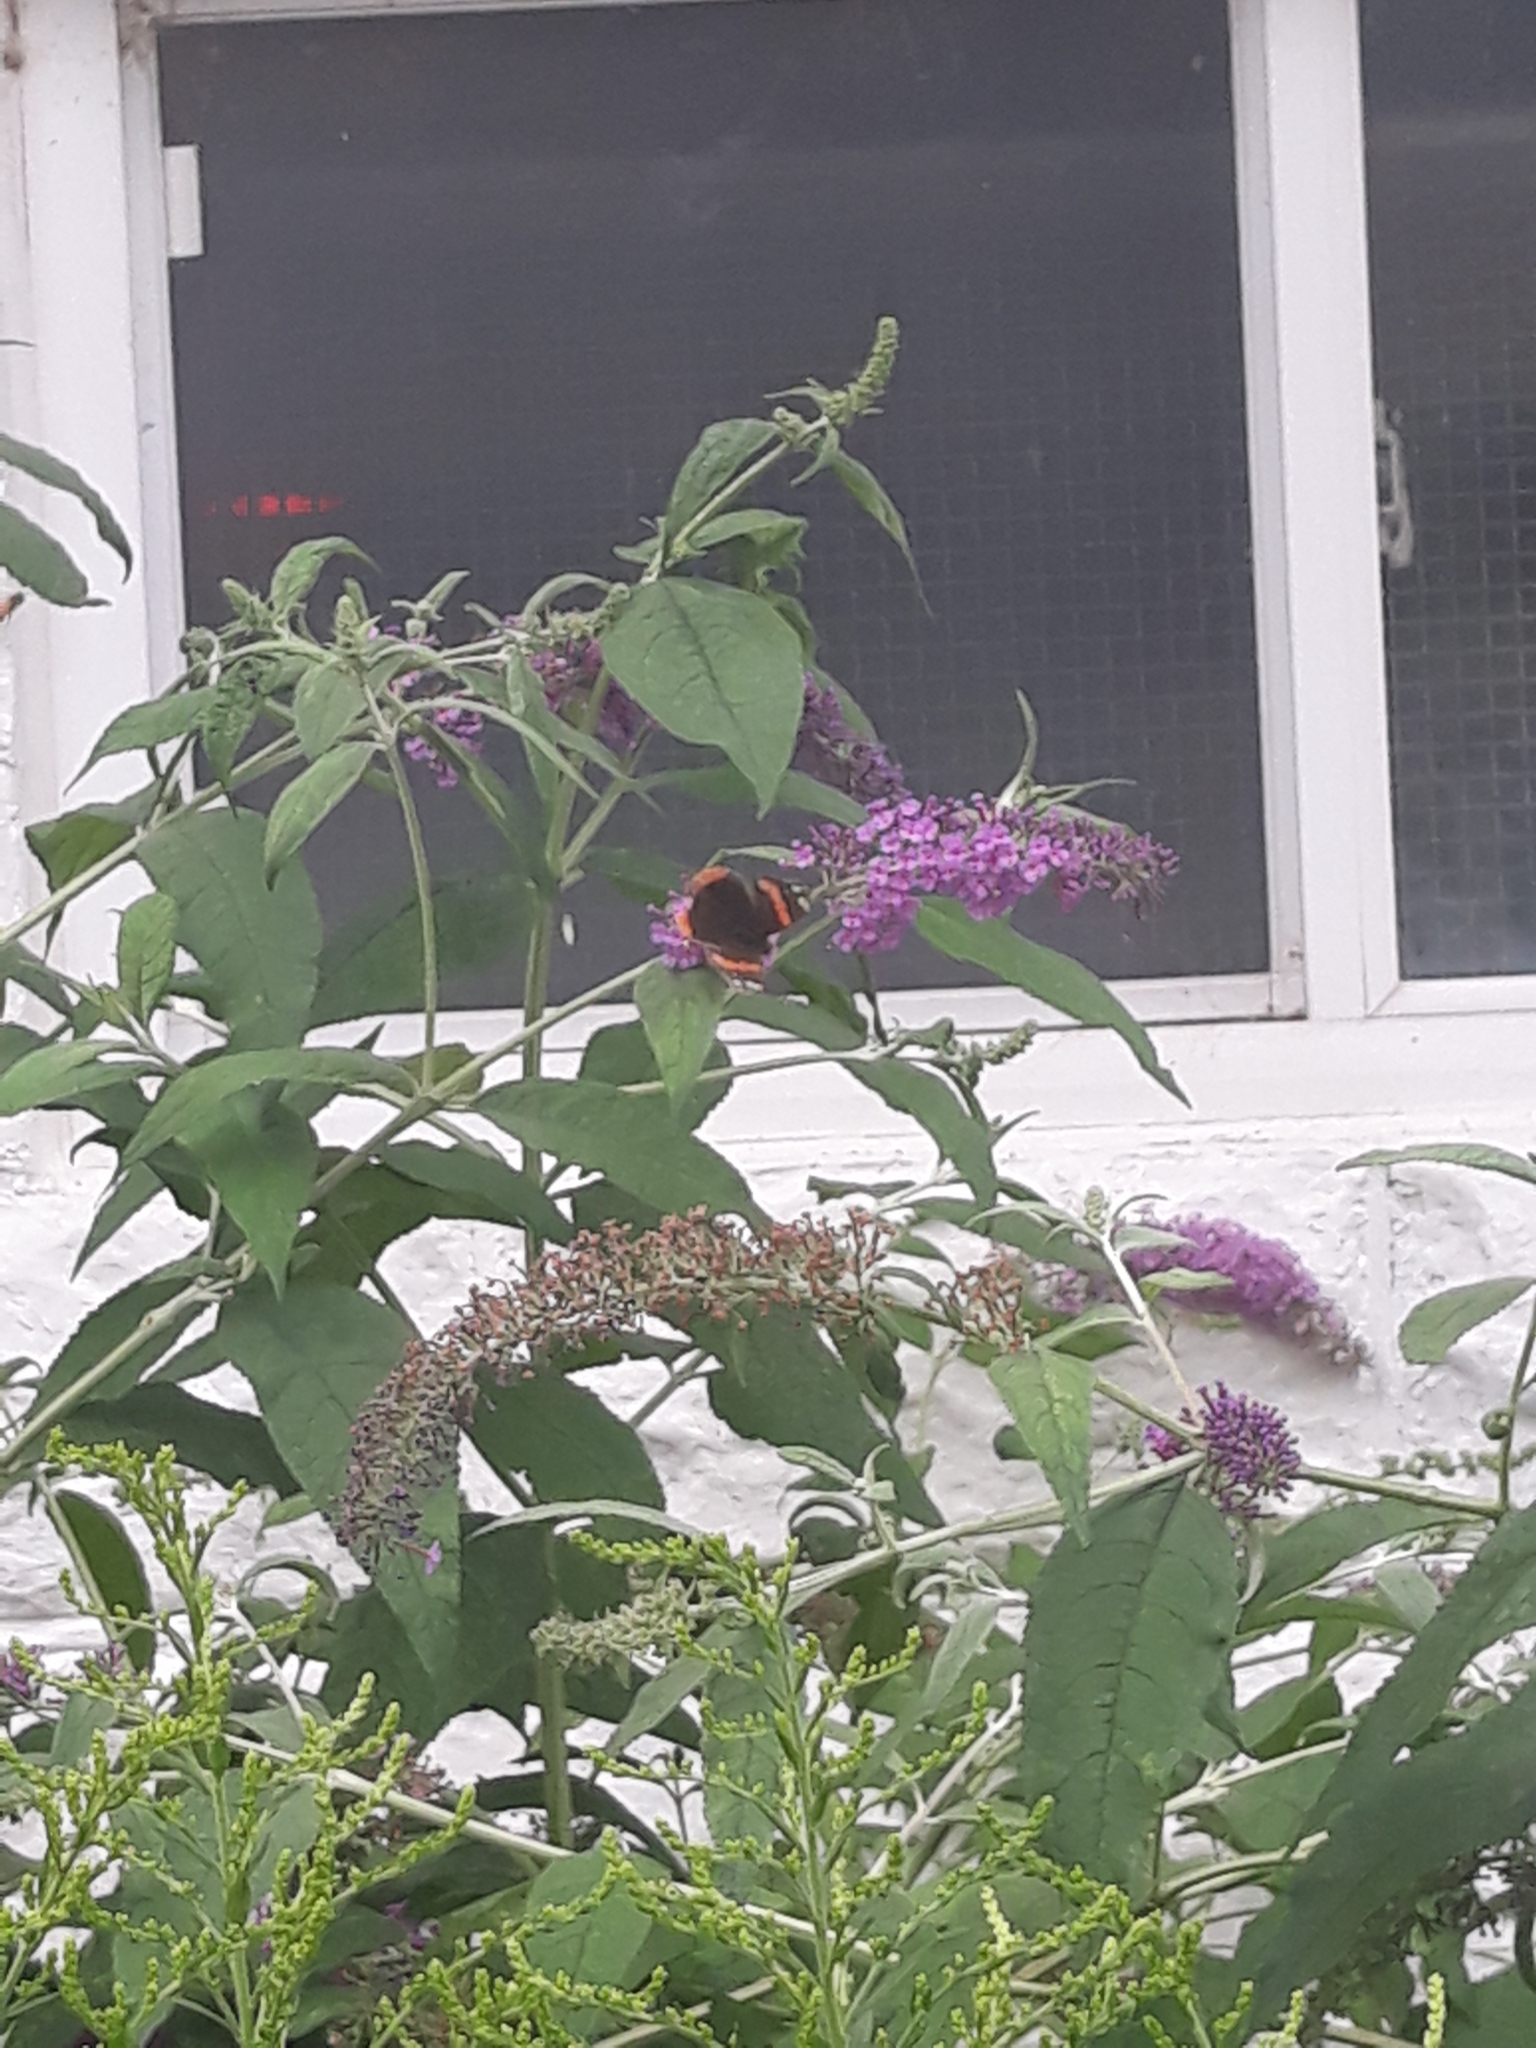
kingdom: Animalia
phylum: Arthropoda
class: Insecta
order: Lepidoptera
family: Nymphalidae
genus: Vanessa
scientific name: Vanessa atalanta
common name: Red admiral
